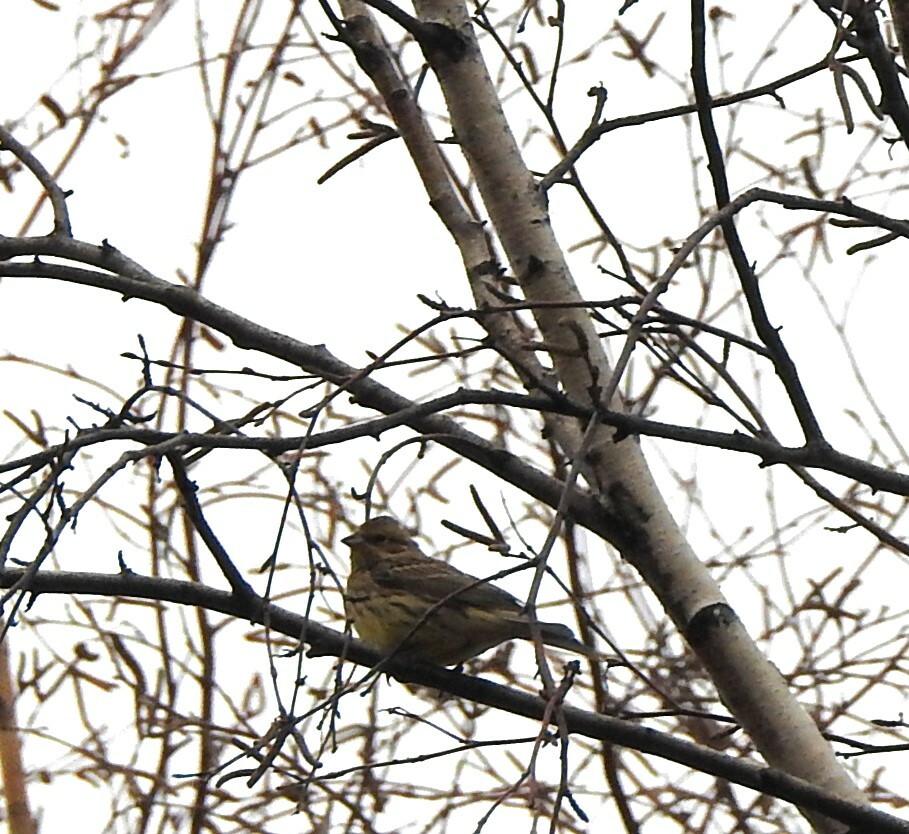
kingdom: Animalia
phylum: Chordata
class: Aves
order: Passeriformes
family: Emberizidae
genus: Emberiza
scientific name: Emberiza citrinella
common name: Yellowhammer
